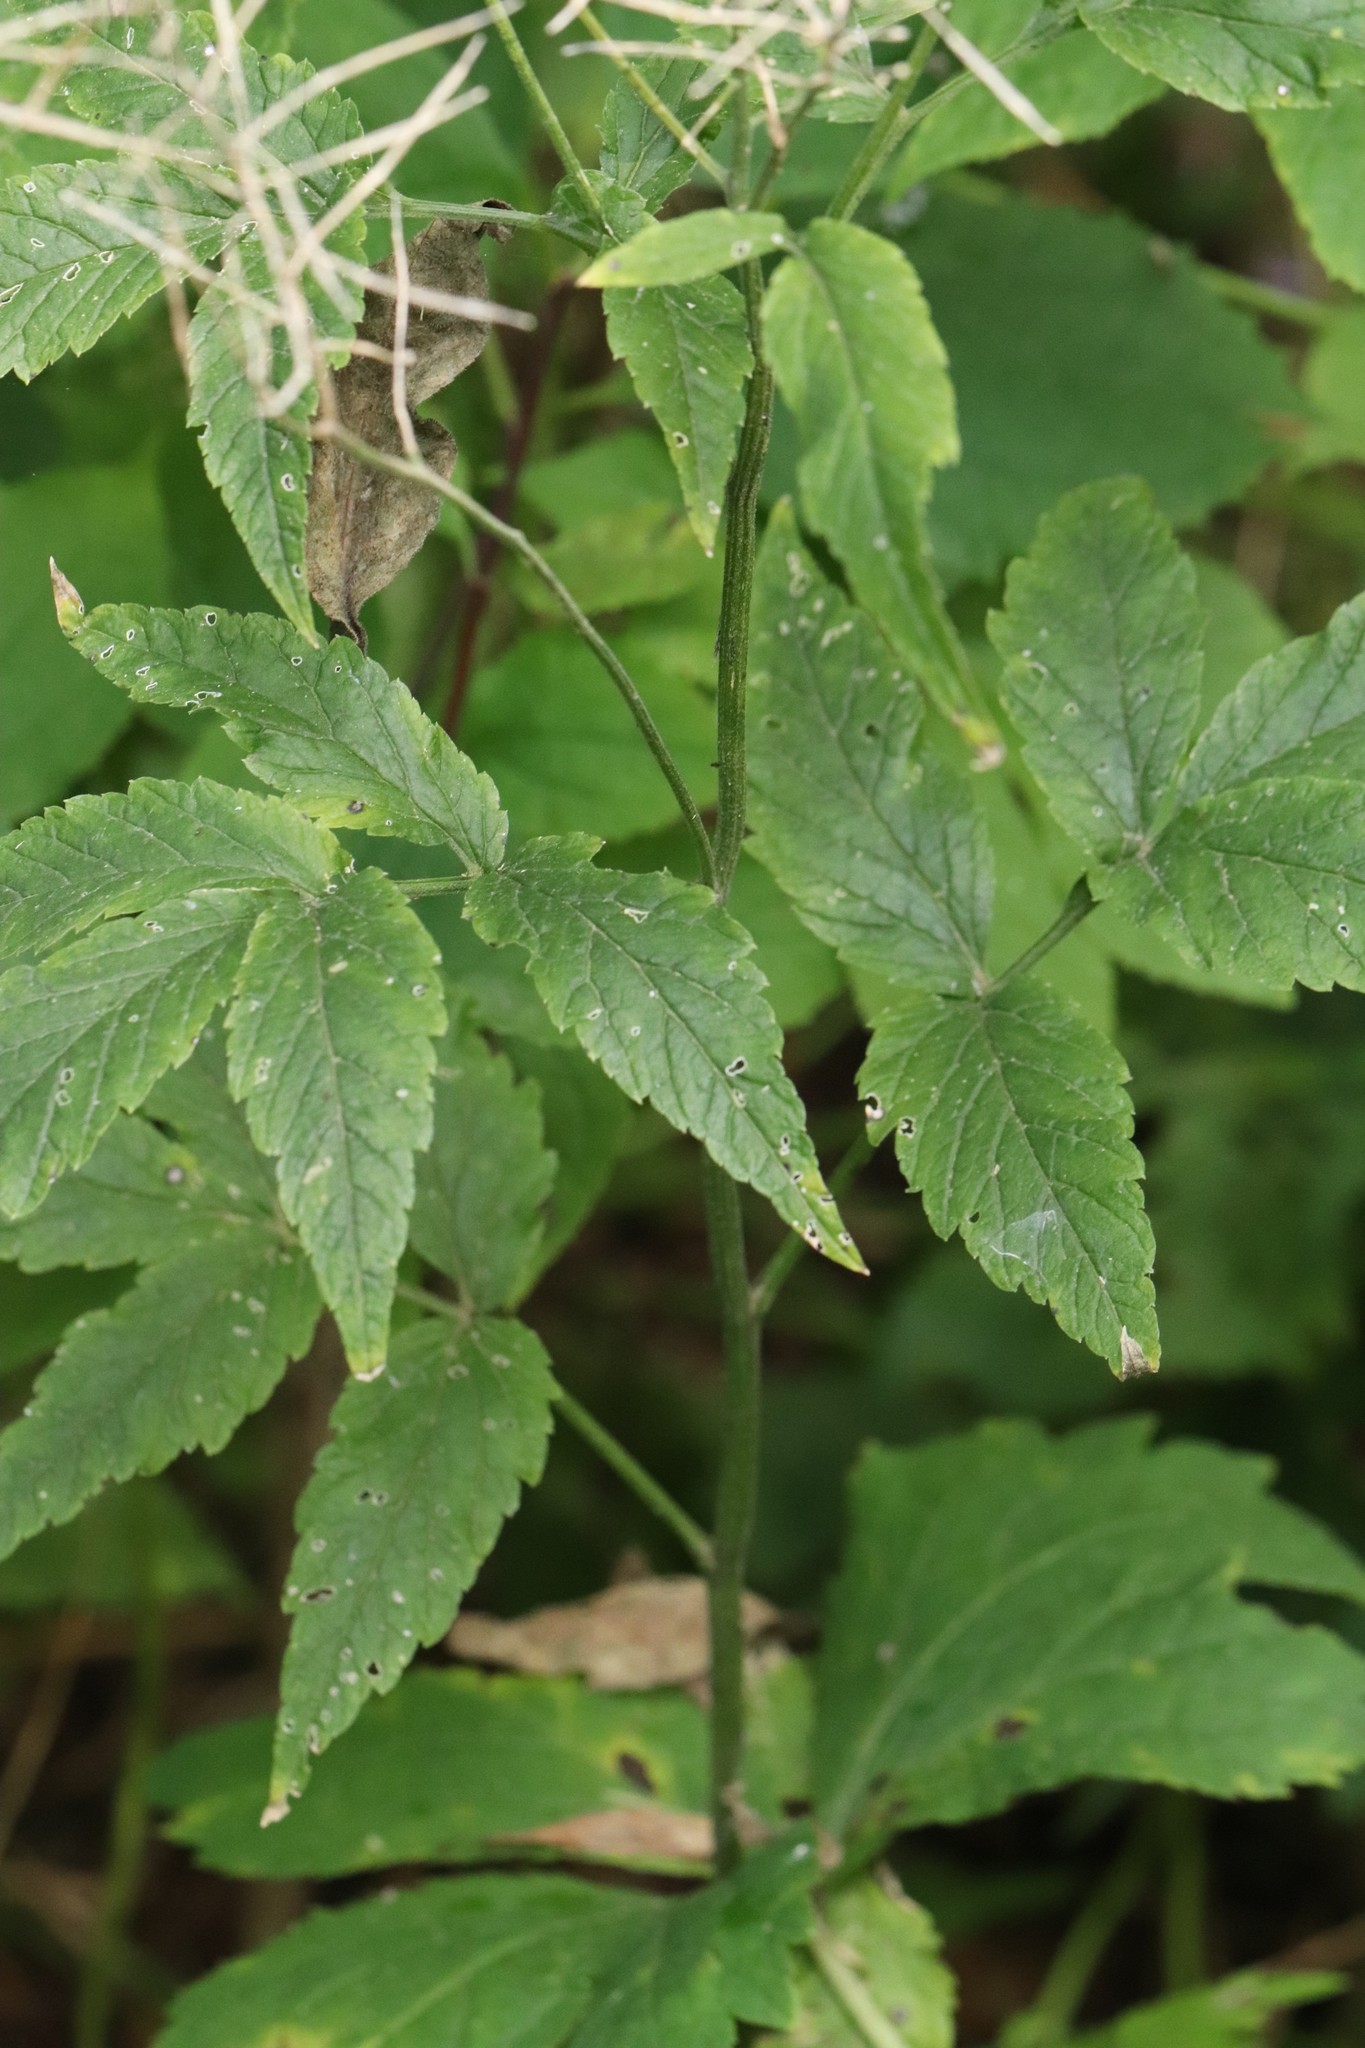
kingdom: Plantae
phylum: Tracheophyta
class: Magnoliopsida
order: Brassicales
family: Brassicaceae
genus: Cardamine
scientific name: Cardamine leucantha
